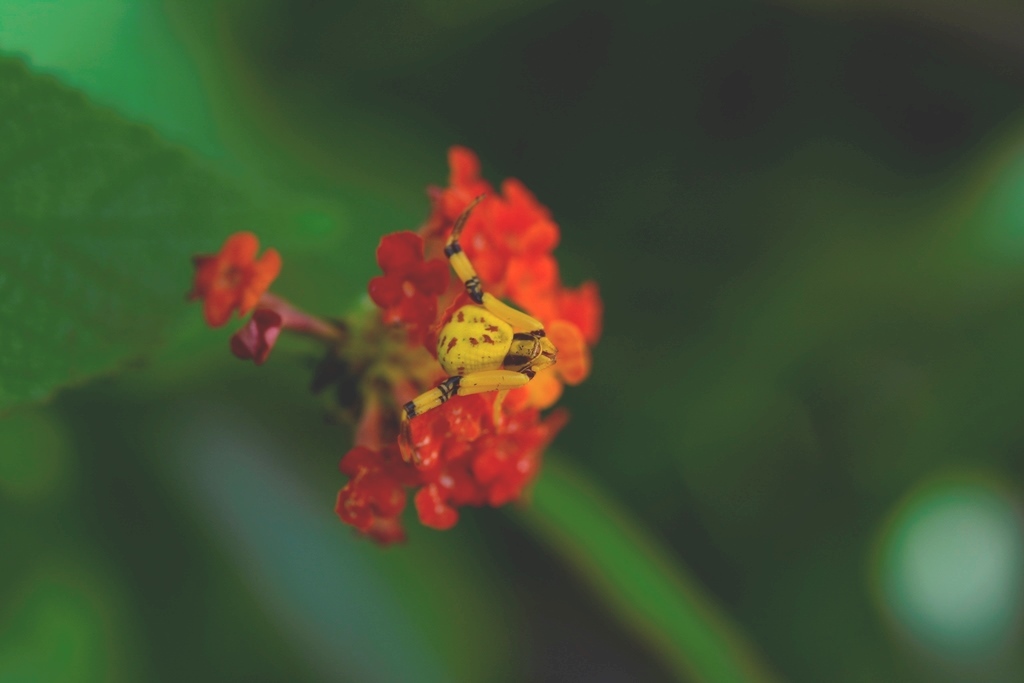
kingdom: Animalia
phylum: Arthropoda
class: Arachnida
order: Araneae
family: Thomisidae
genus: Misumenoides
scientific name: Misumenoides formosipes
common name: White-banded crab spider
